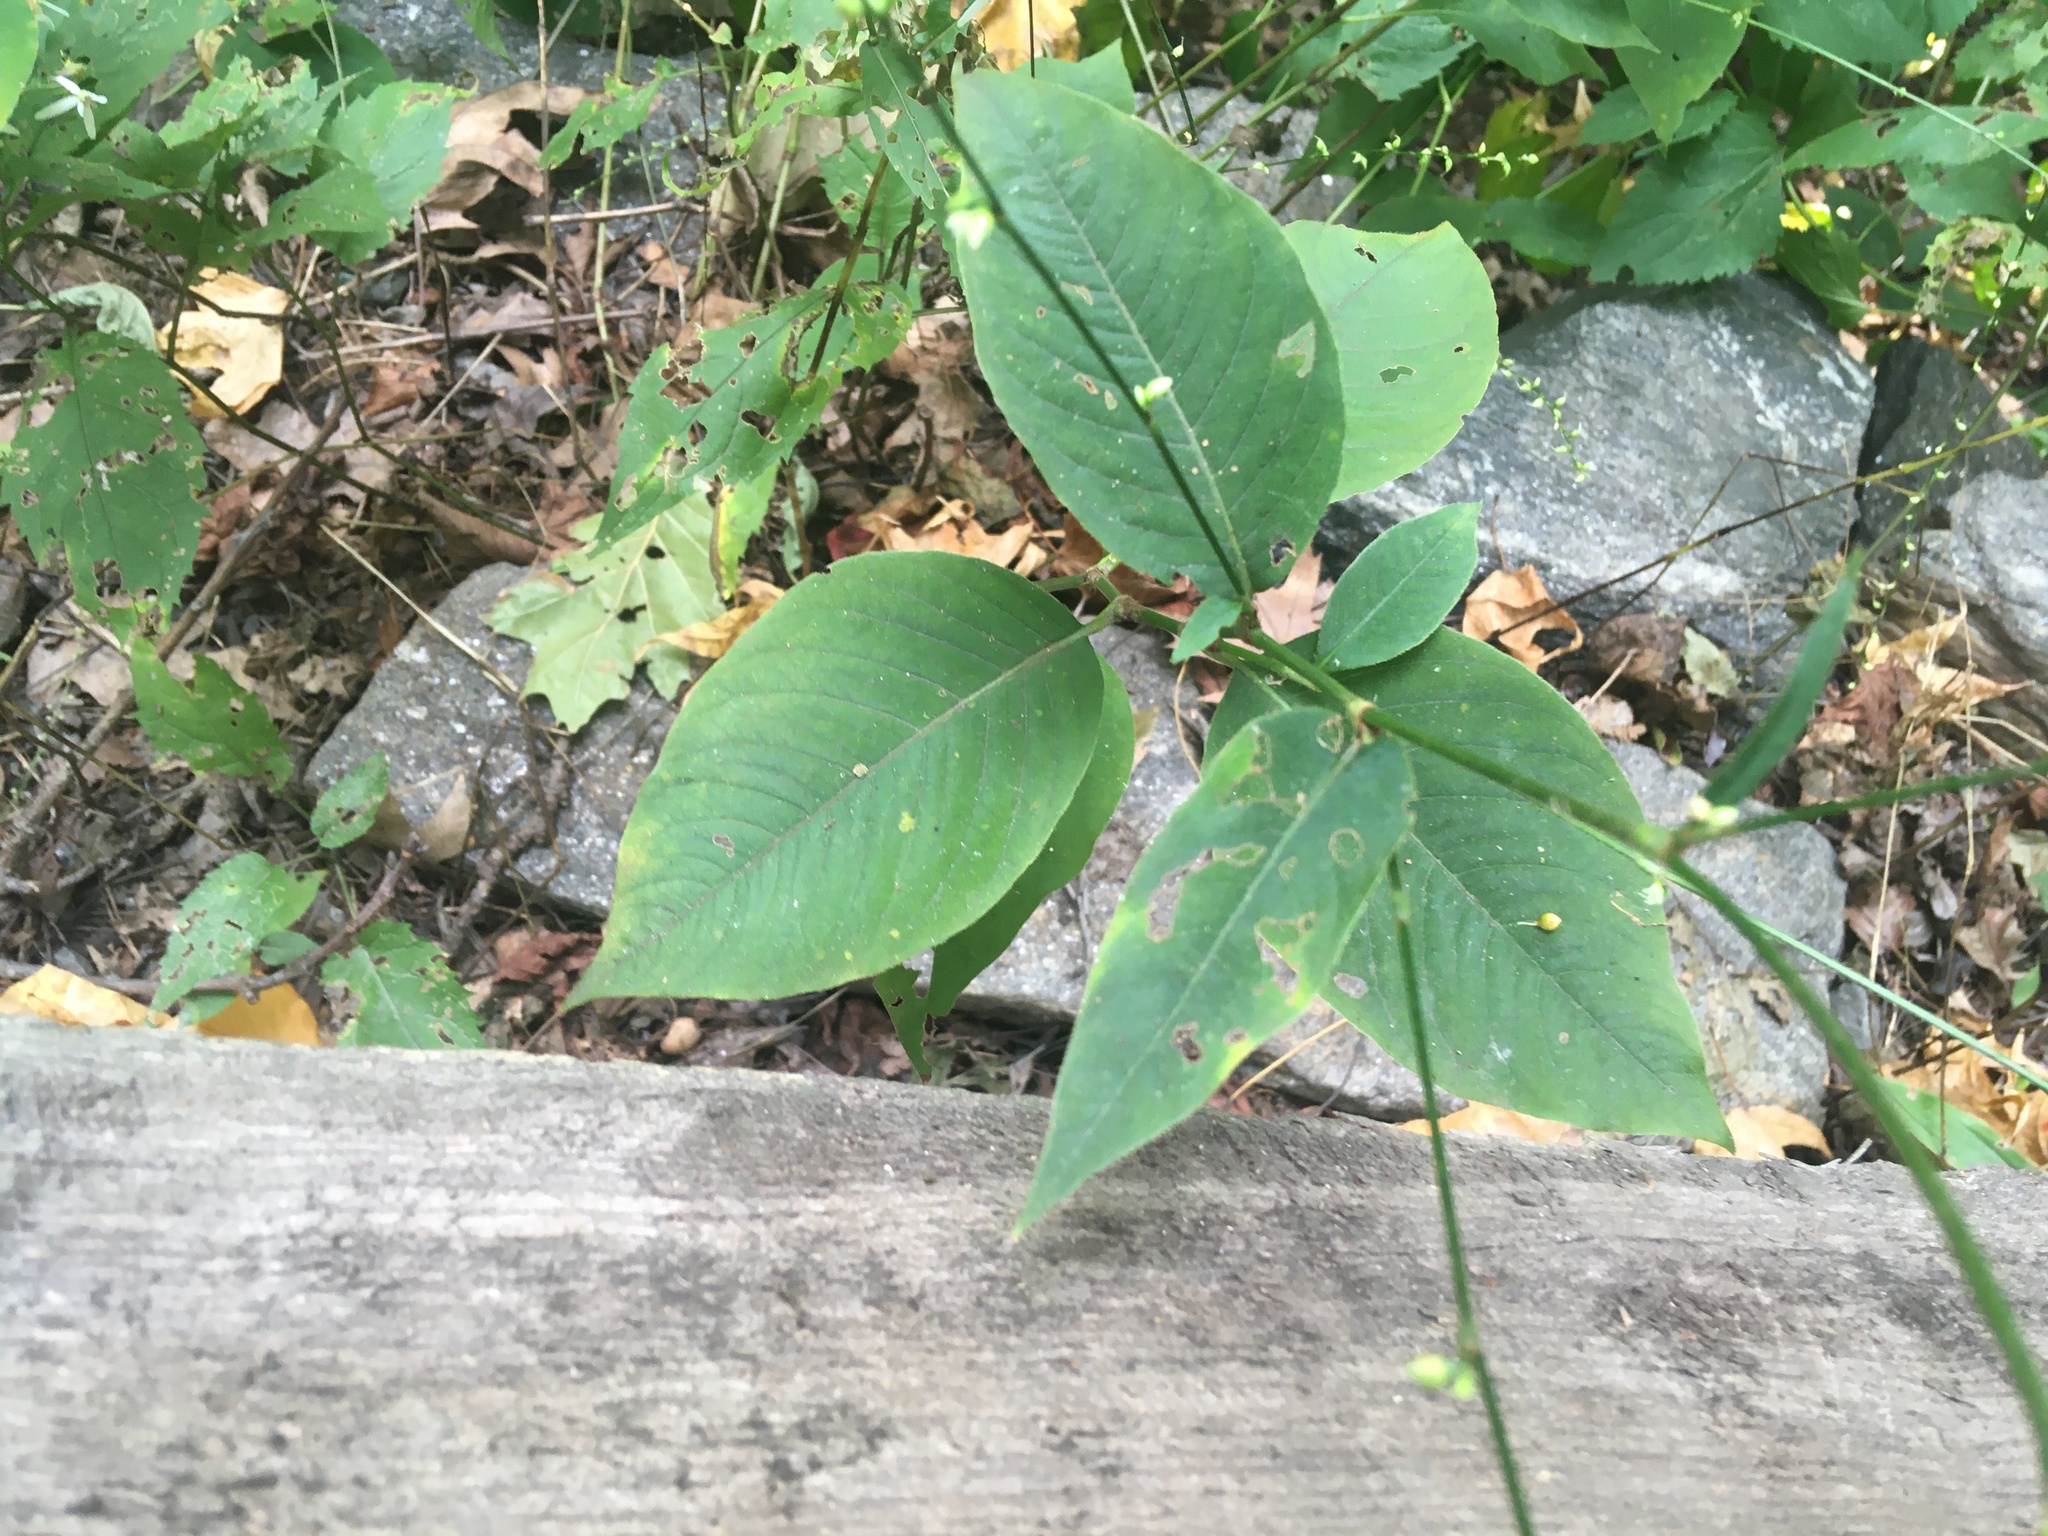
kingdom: Plantae
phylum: Tracheophyta
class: Magnoliopsida
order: Caryophyllales
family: Polygonaceae
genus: Persicaria
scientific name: Persicaria virginiana
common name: Jumpseed
